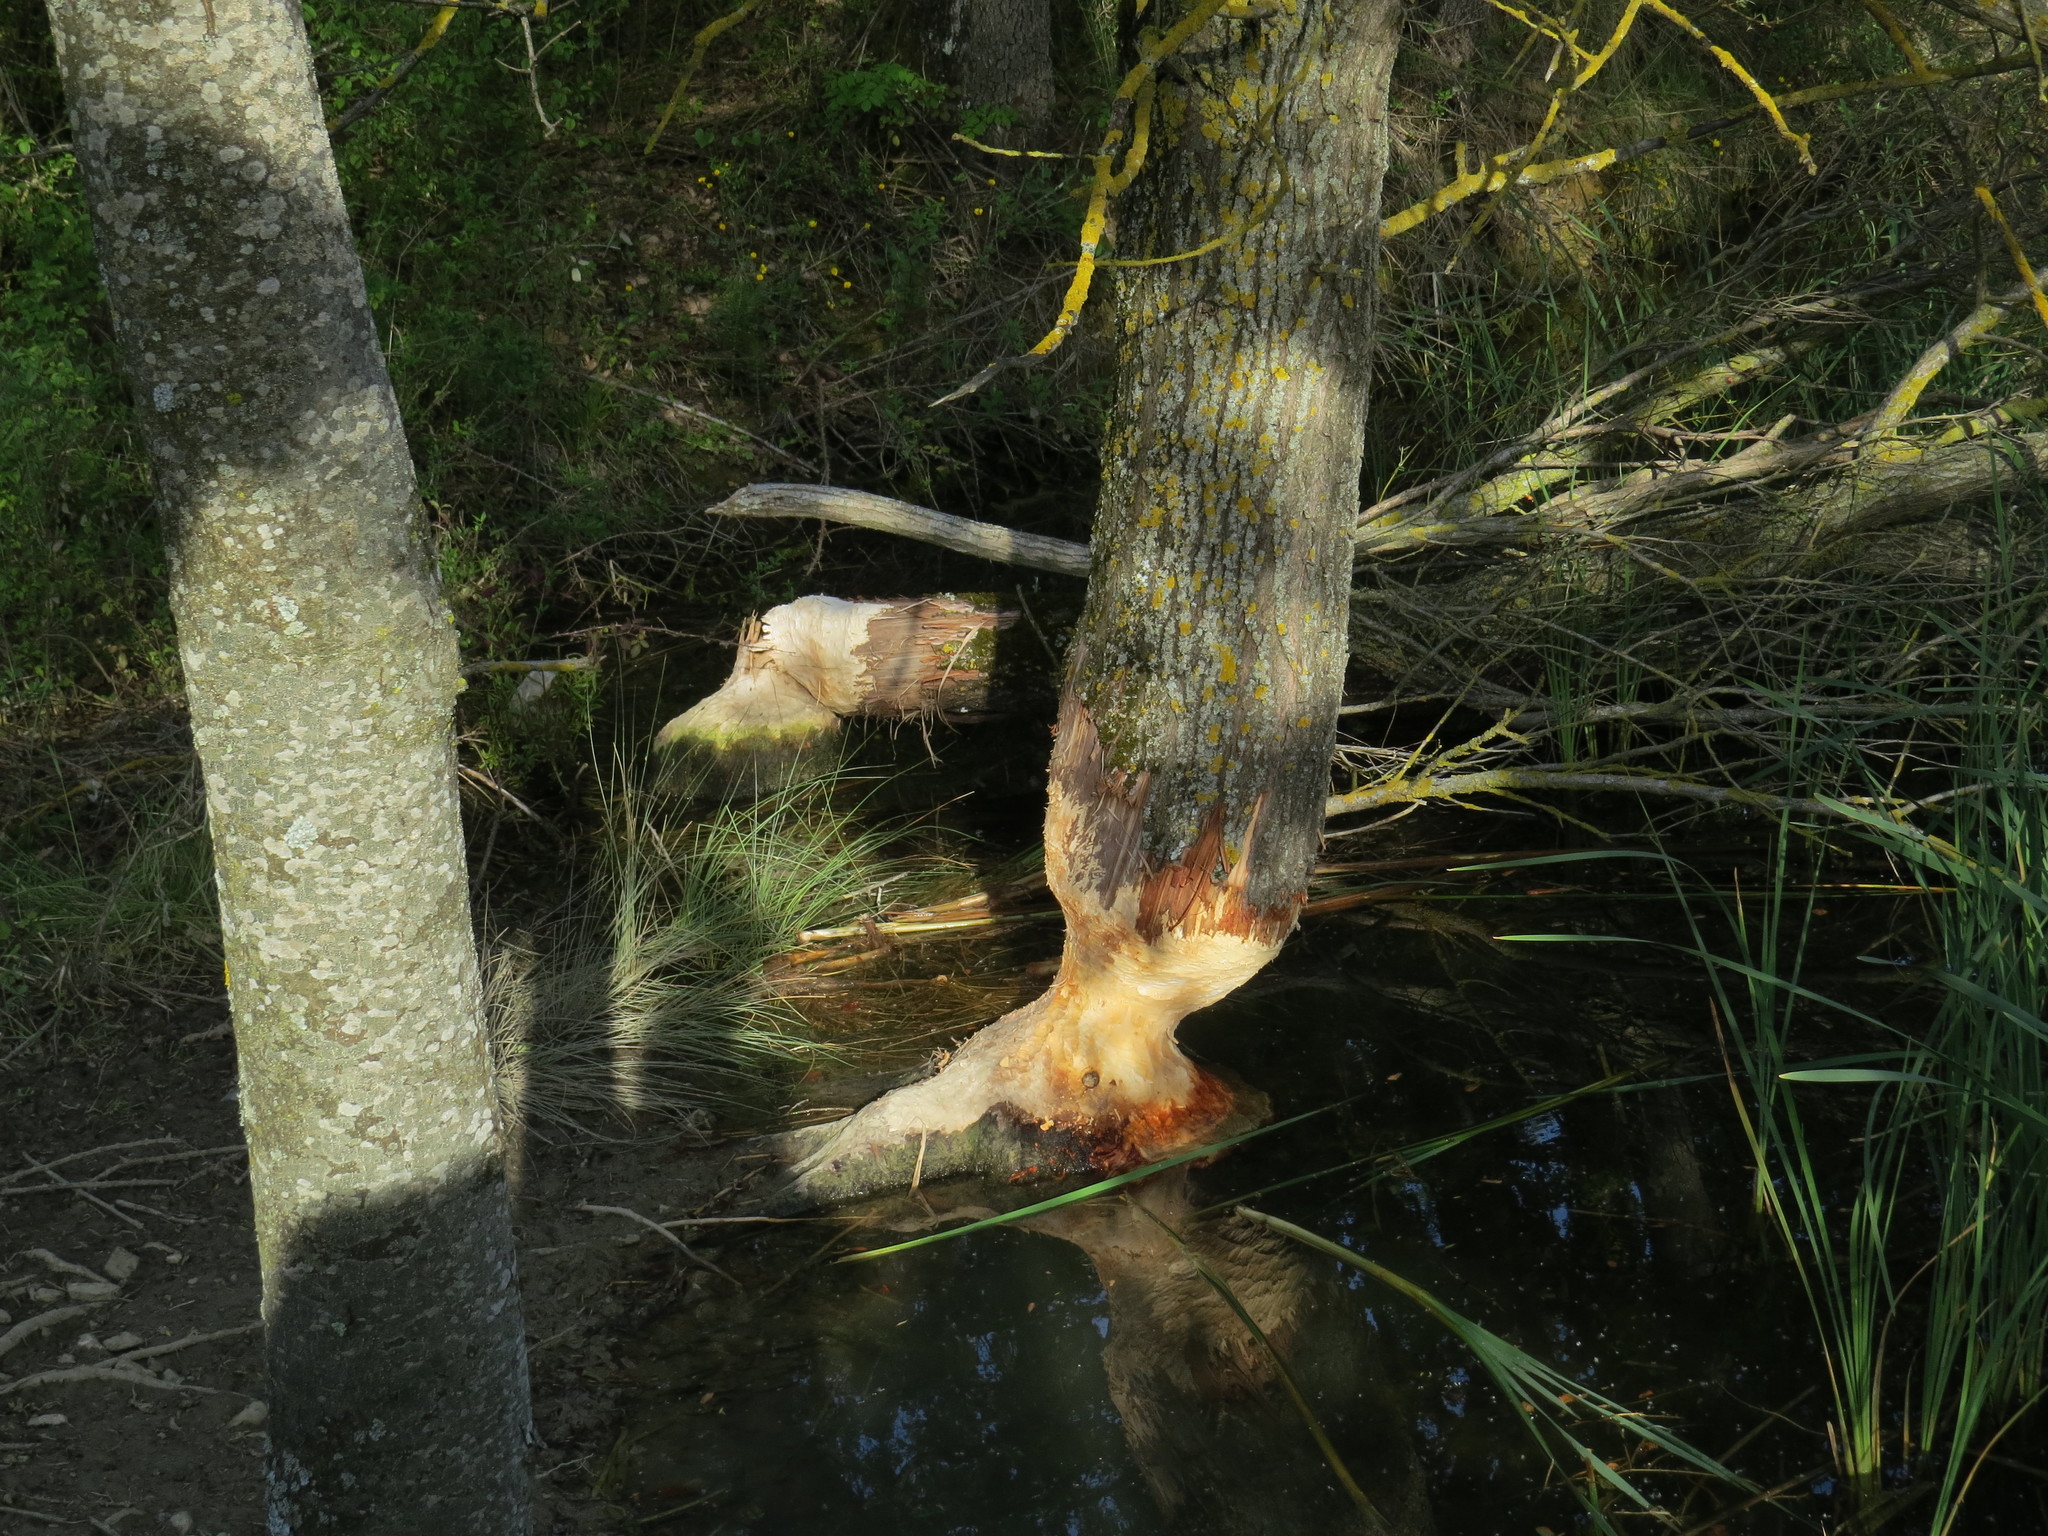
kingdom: Animalia
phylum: Chordata
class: Mammalia
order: Rodentia
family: Castoridae
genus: Castor
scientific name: Castor fiber
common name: Eurasian beaver
